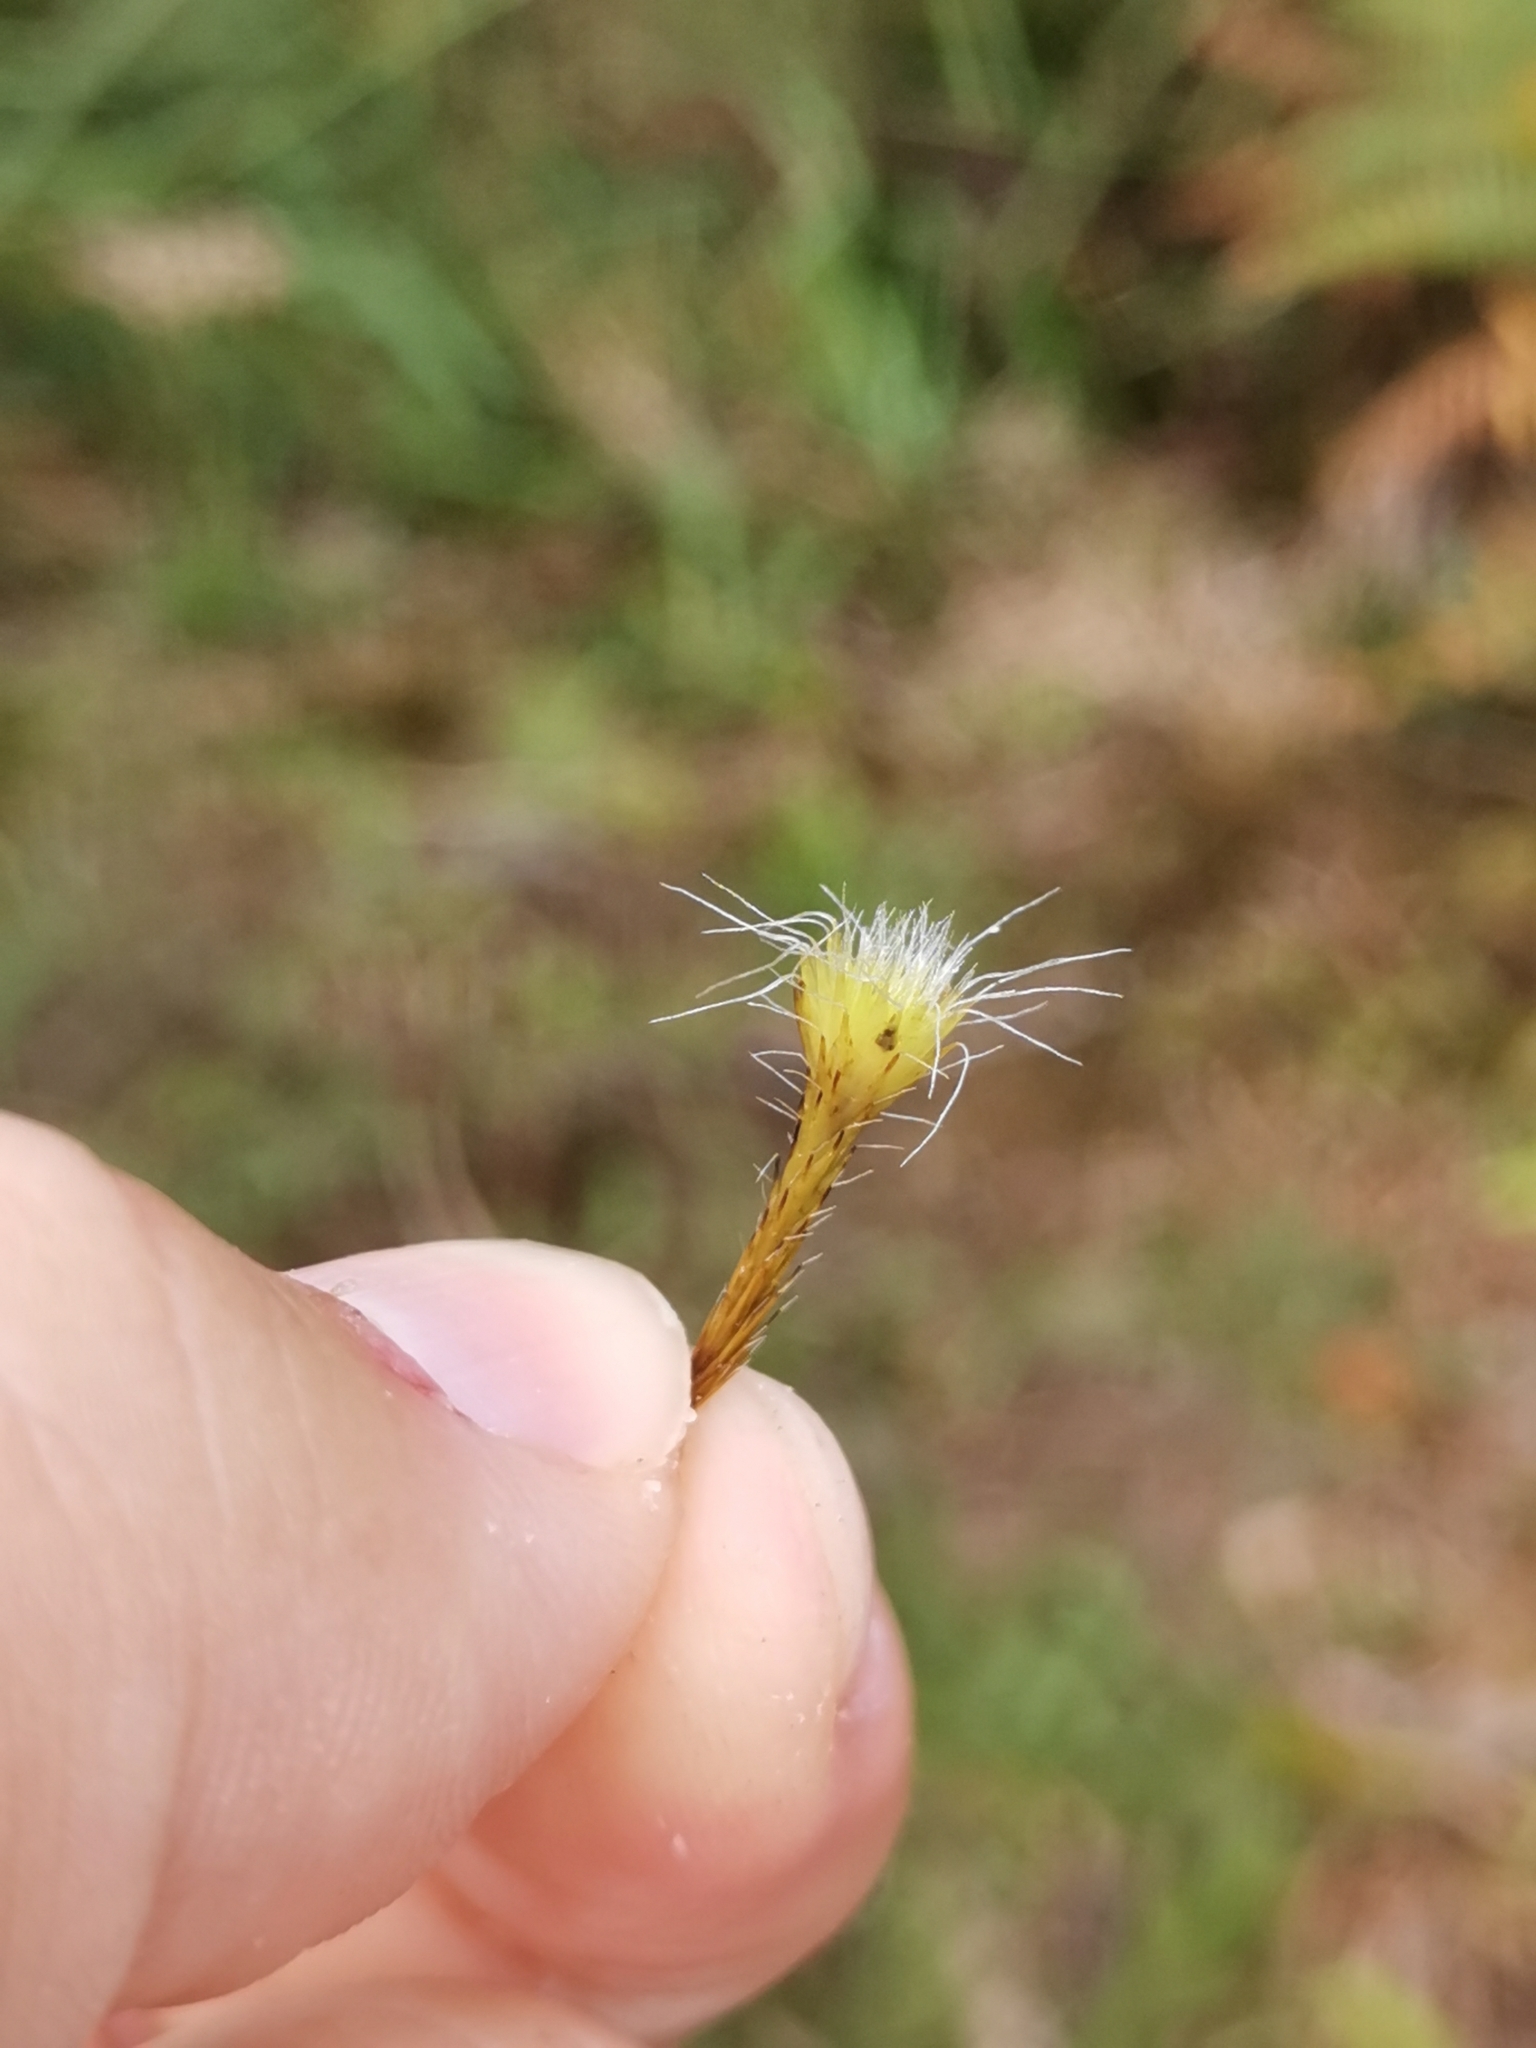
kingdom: Plantae
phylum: Bryophyta
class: Bryopsida
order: Dicranales
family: Leucobryaceae
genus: Campylopus
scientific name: Campylopus introflexus
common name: Heath star moss
